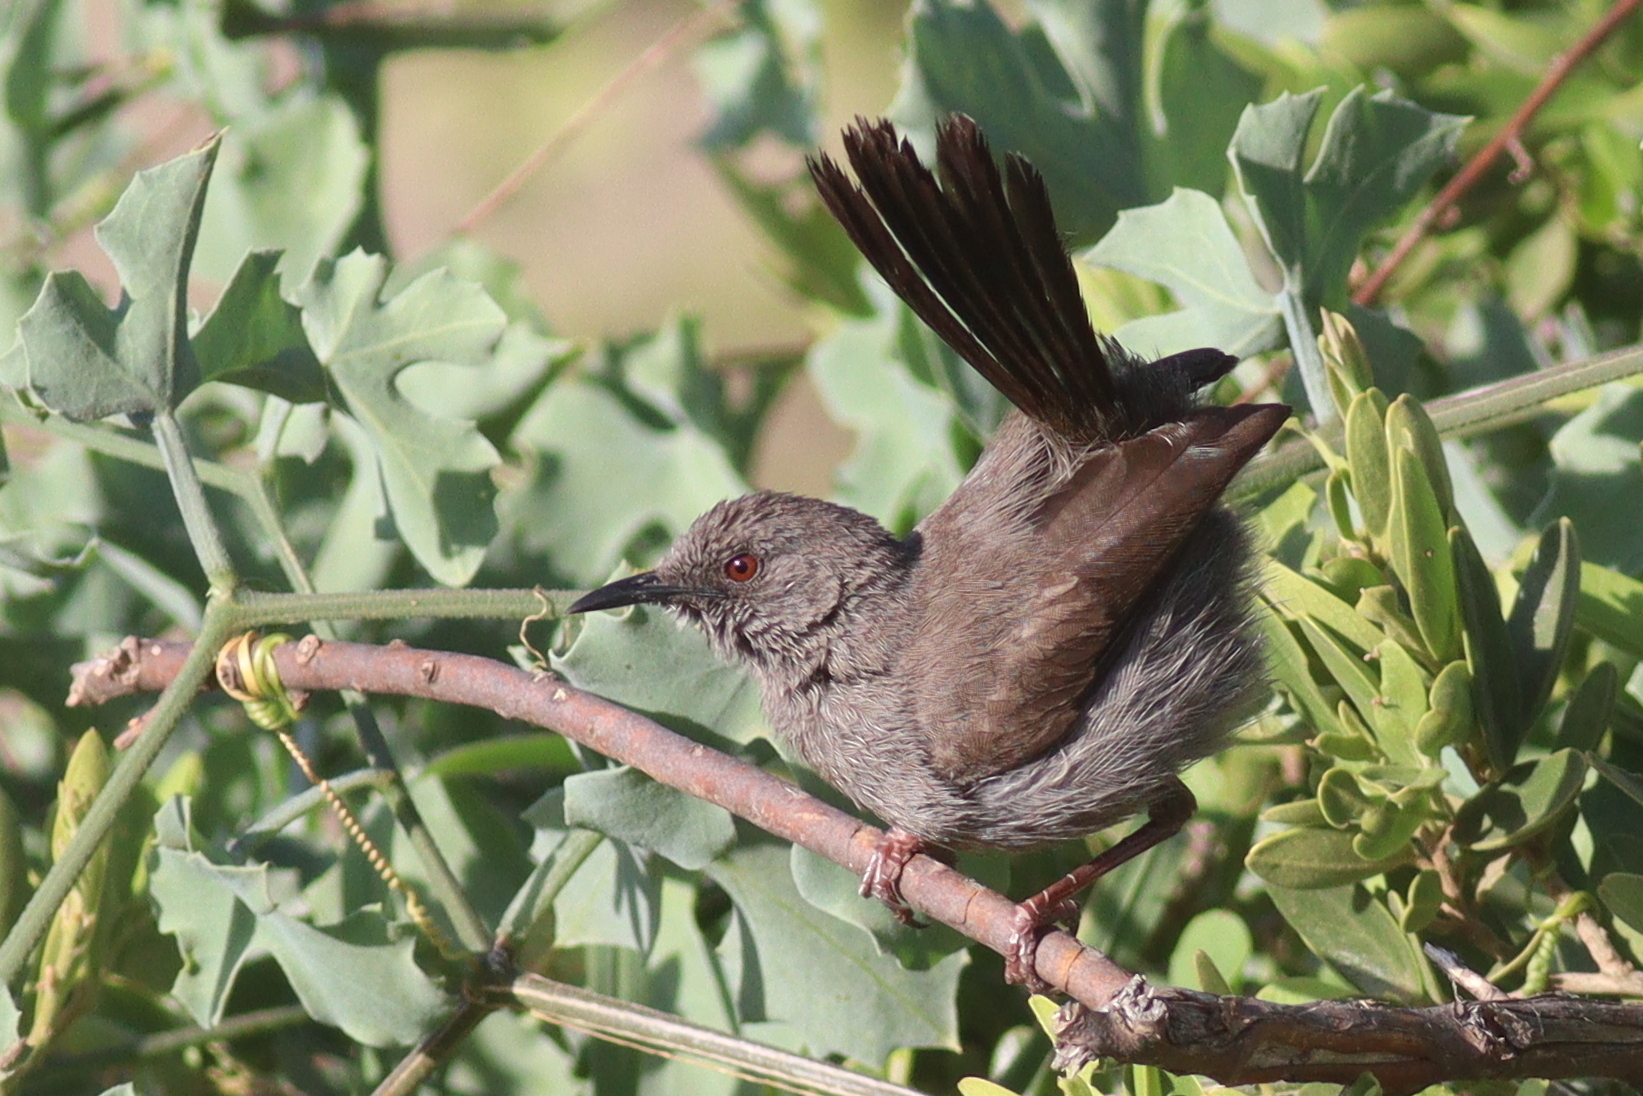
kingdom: Animalia
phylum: Chordata
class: Aves
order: Passeriformes
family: Cisticolidae
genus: Calamonastes
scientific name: Calamonastes simplex
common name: Grey wren-warbler
